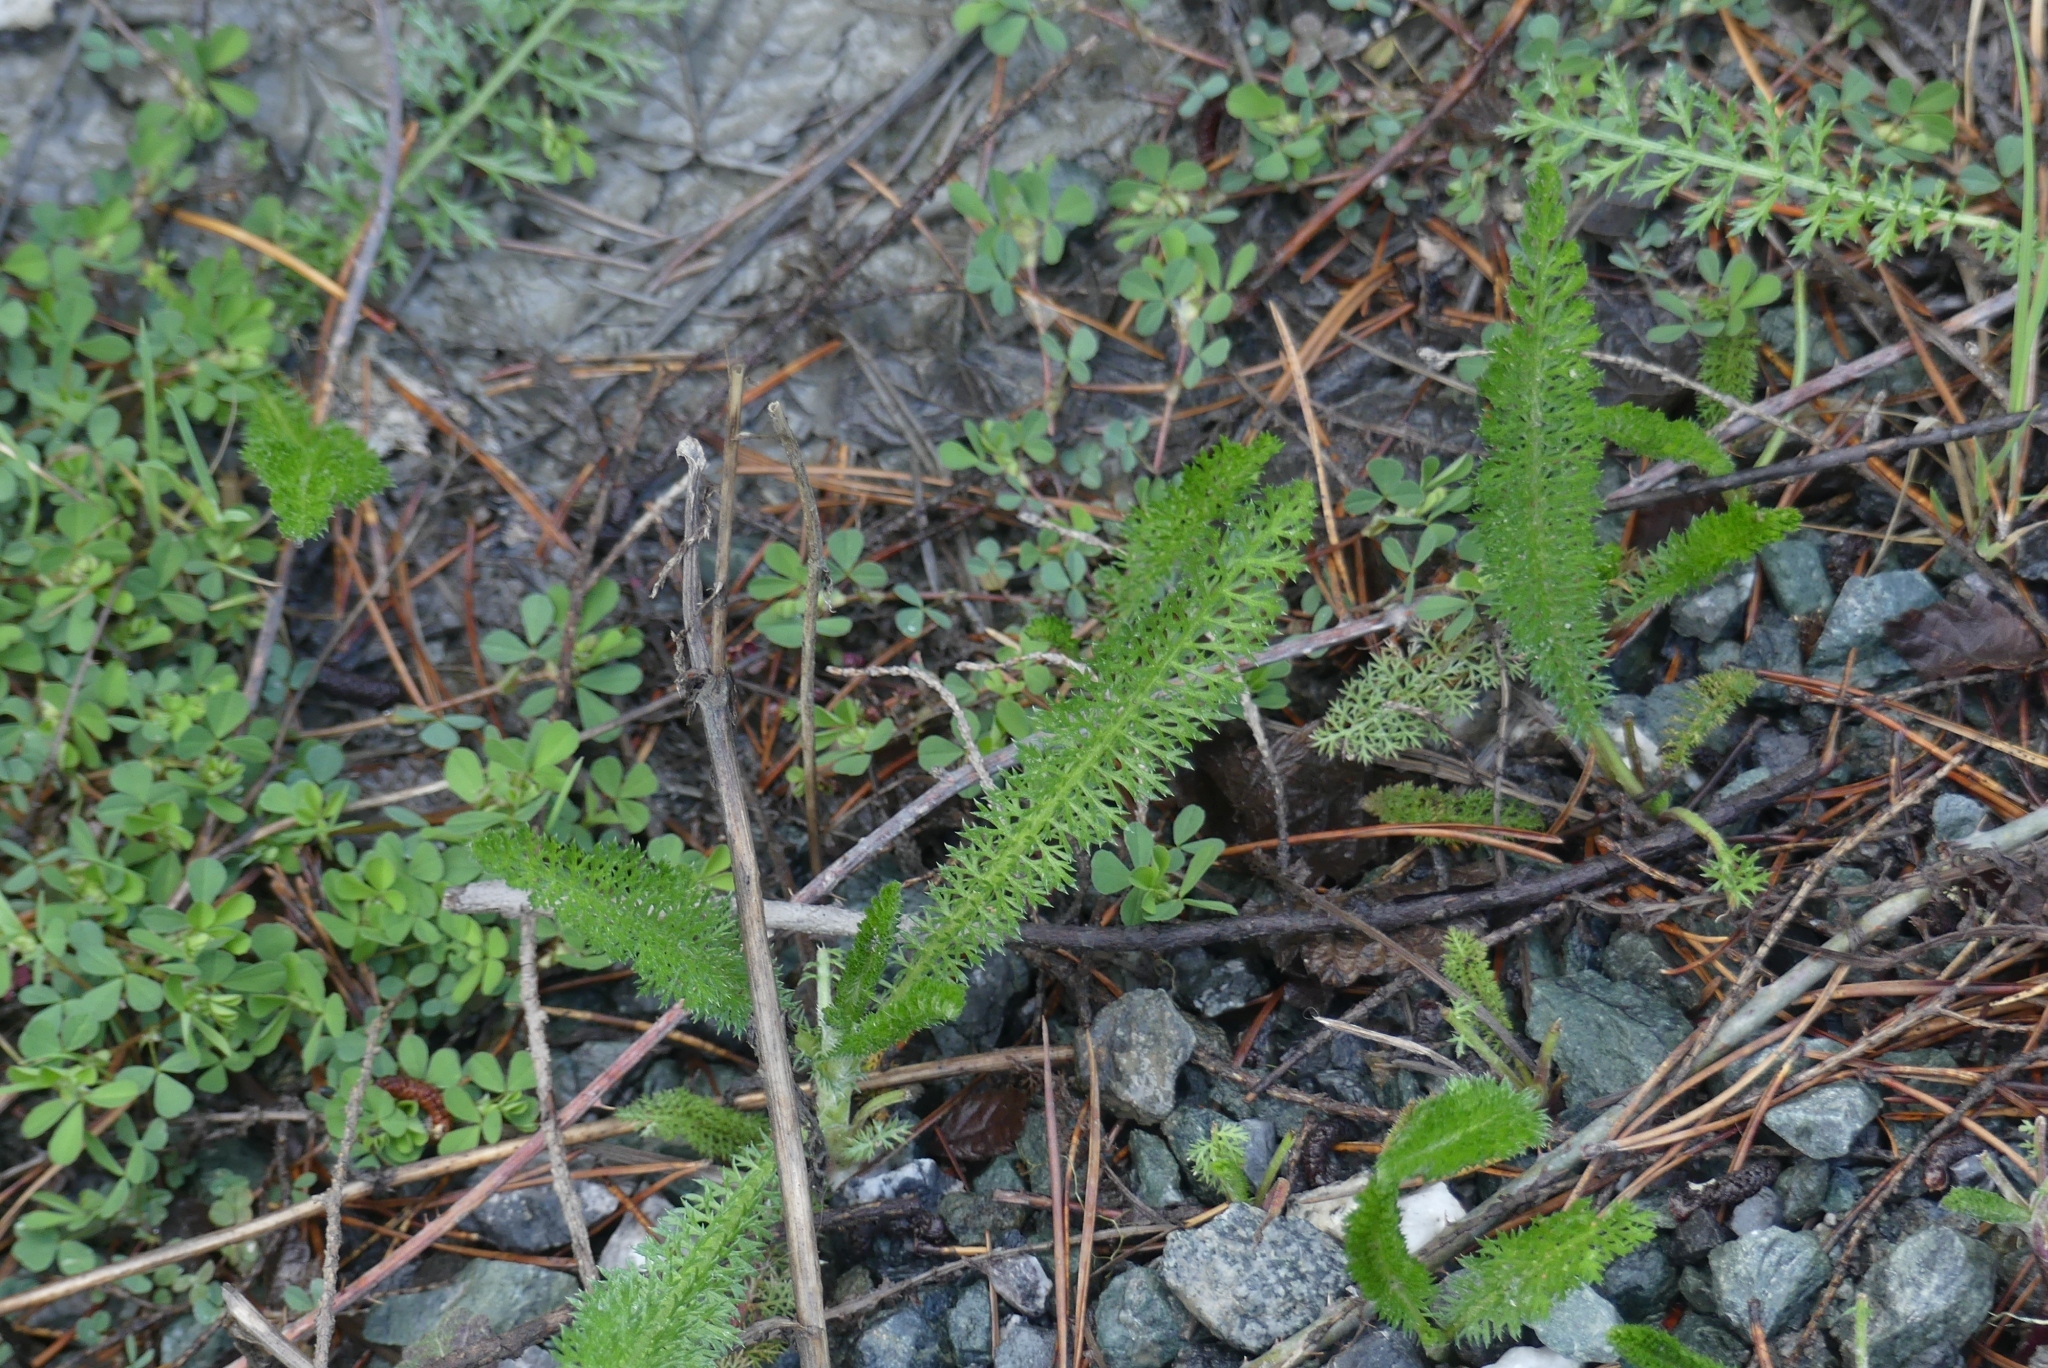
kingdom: Plantae
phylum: Tracheophyta
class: Magnoliopsida
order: Asterales
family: Asteraceae
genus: Achillea
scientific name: Achillea millefolium
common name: Yarrow
